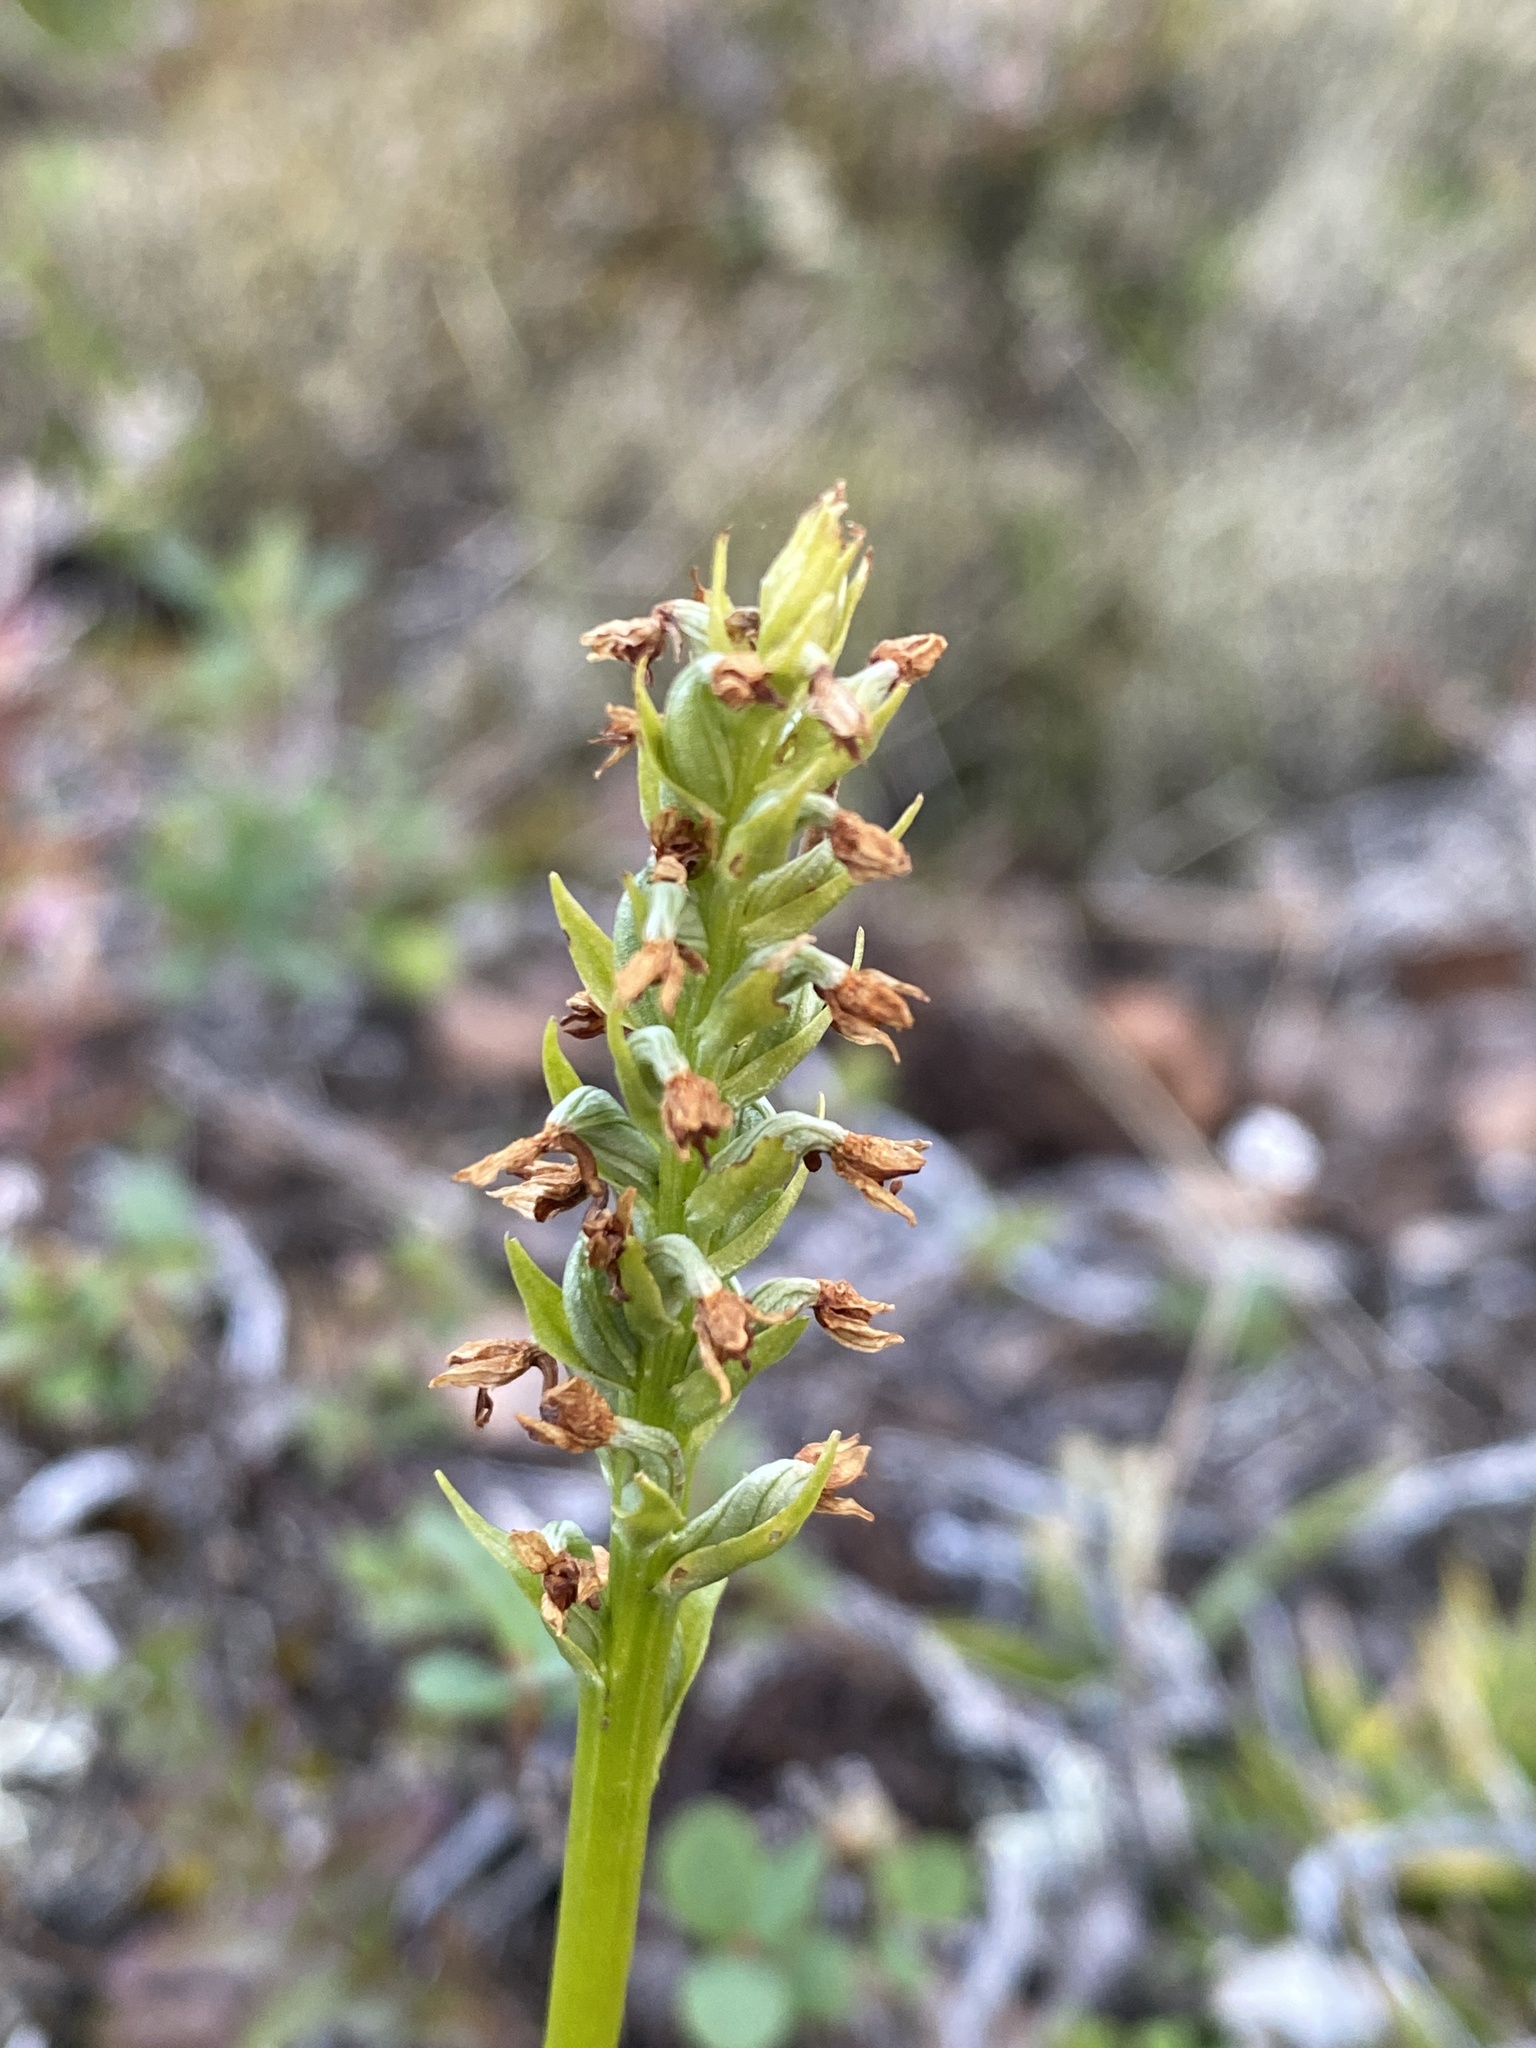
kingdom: Plantae
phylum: Tracheophyta
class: Liliopsida
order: Asparagales
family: Orchidaceae
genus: Pseudorchis
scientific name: Pseudorchis albida
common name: Small-white orchid
